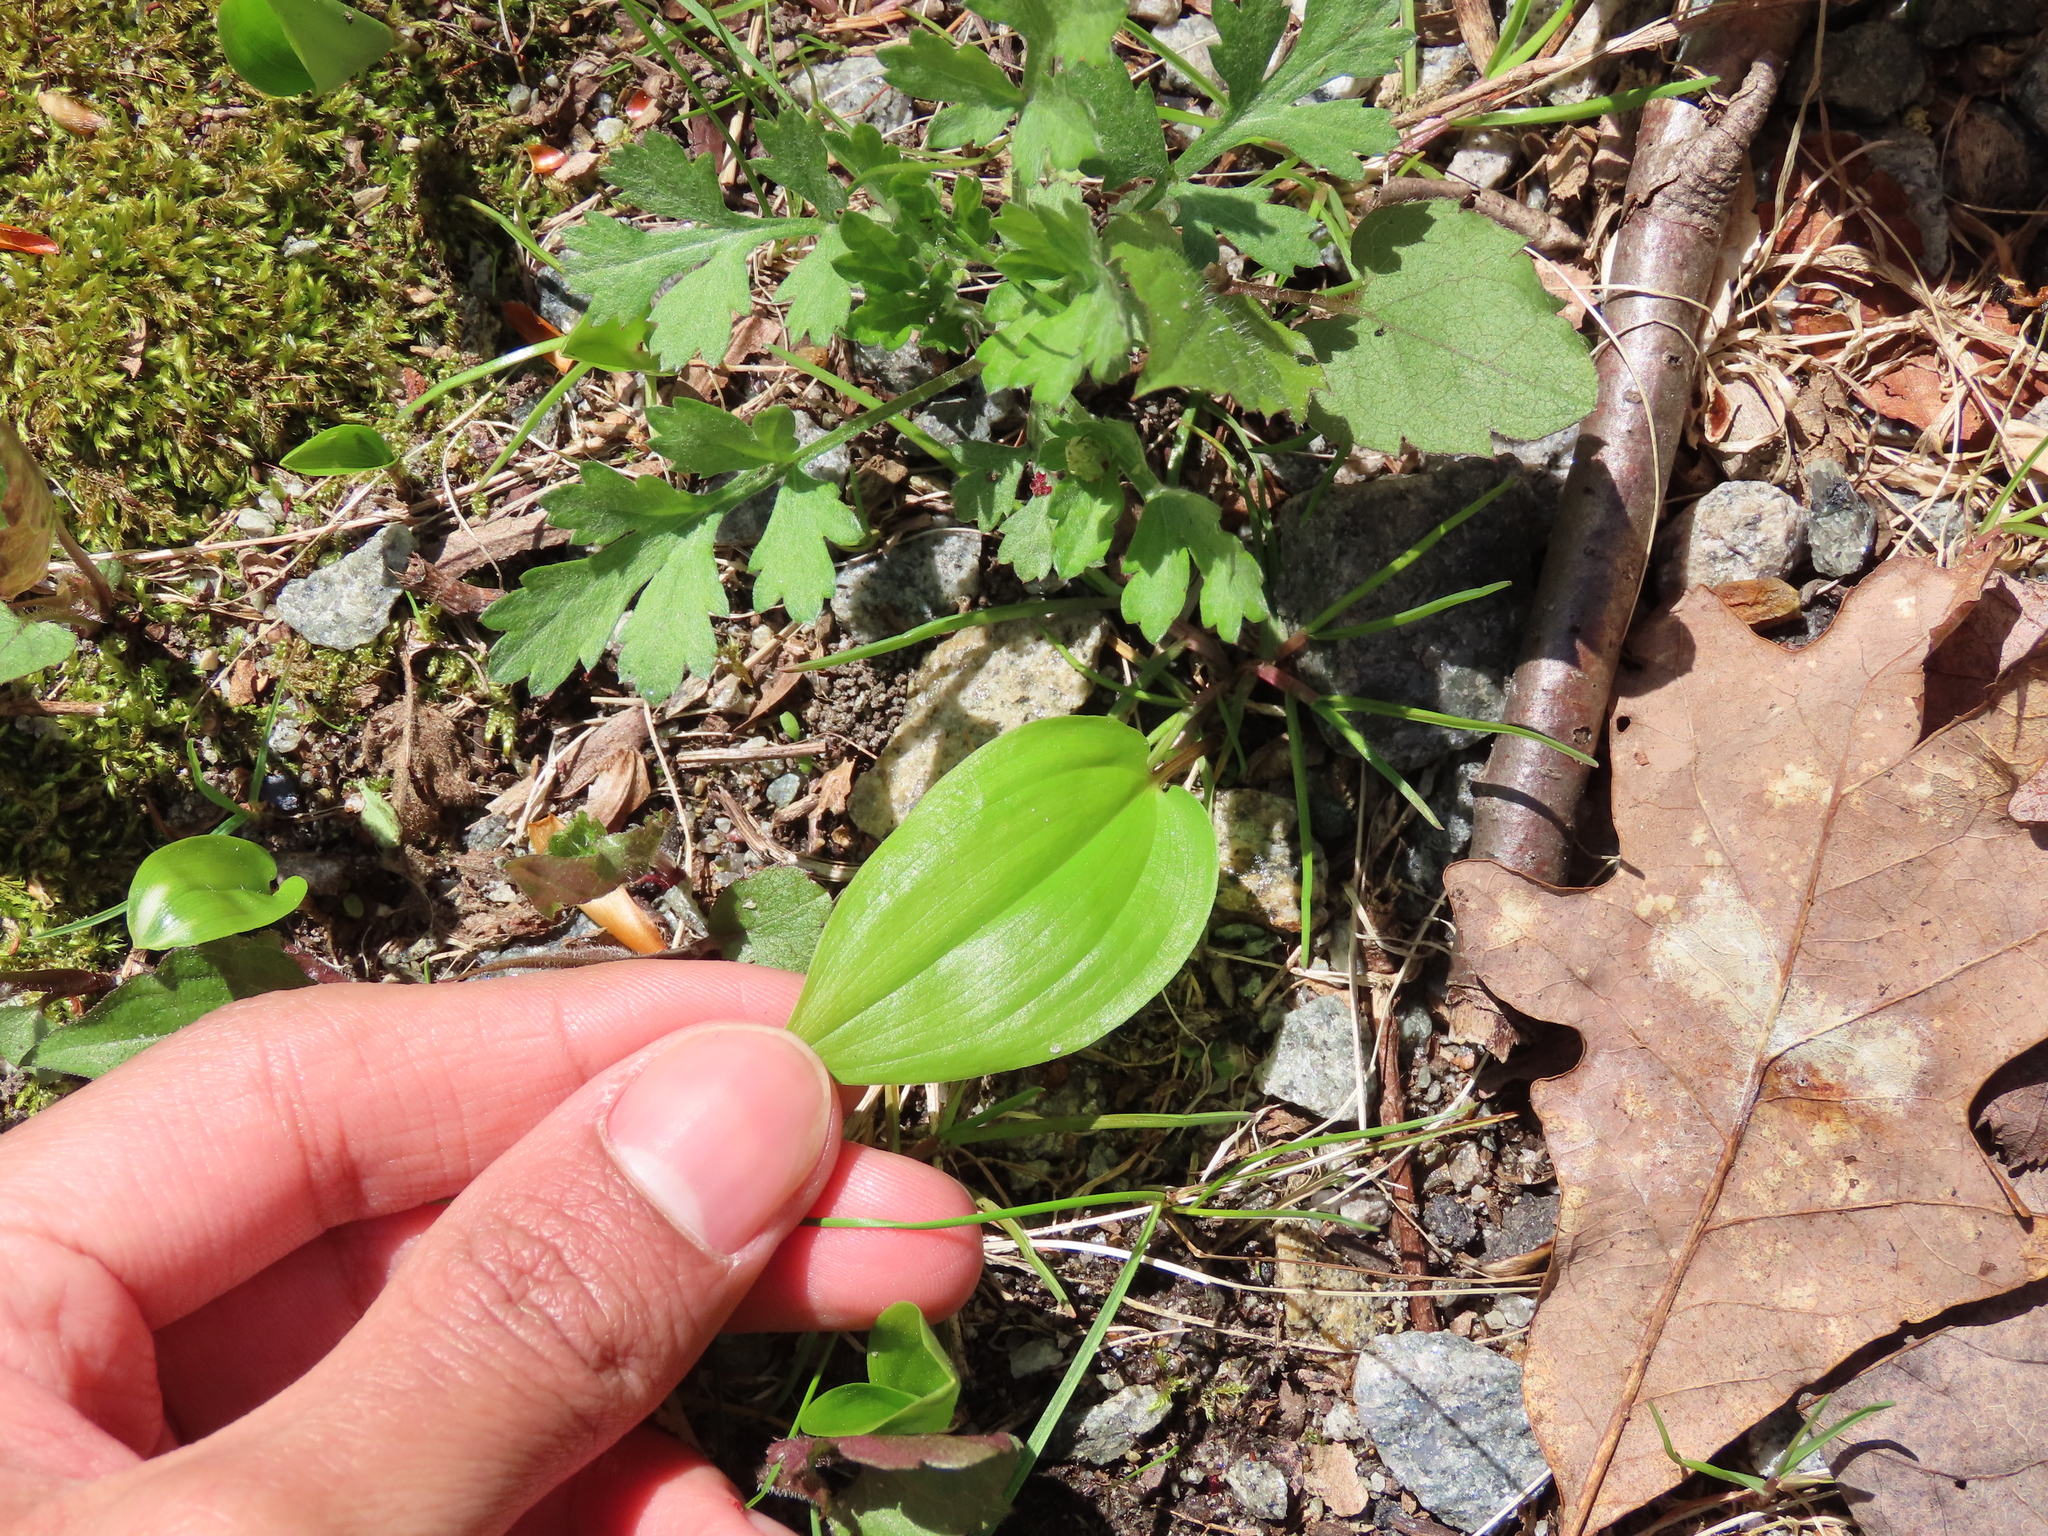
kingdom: Plantae
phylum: Tracheophyta
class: Liliopsida
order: Asparagales
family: Asparagaceae
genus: Maianthemum
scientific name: Maianthemum canadense
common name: False lily-of-the-valley
